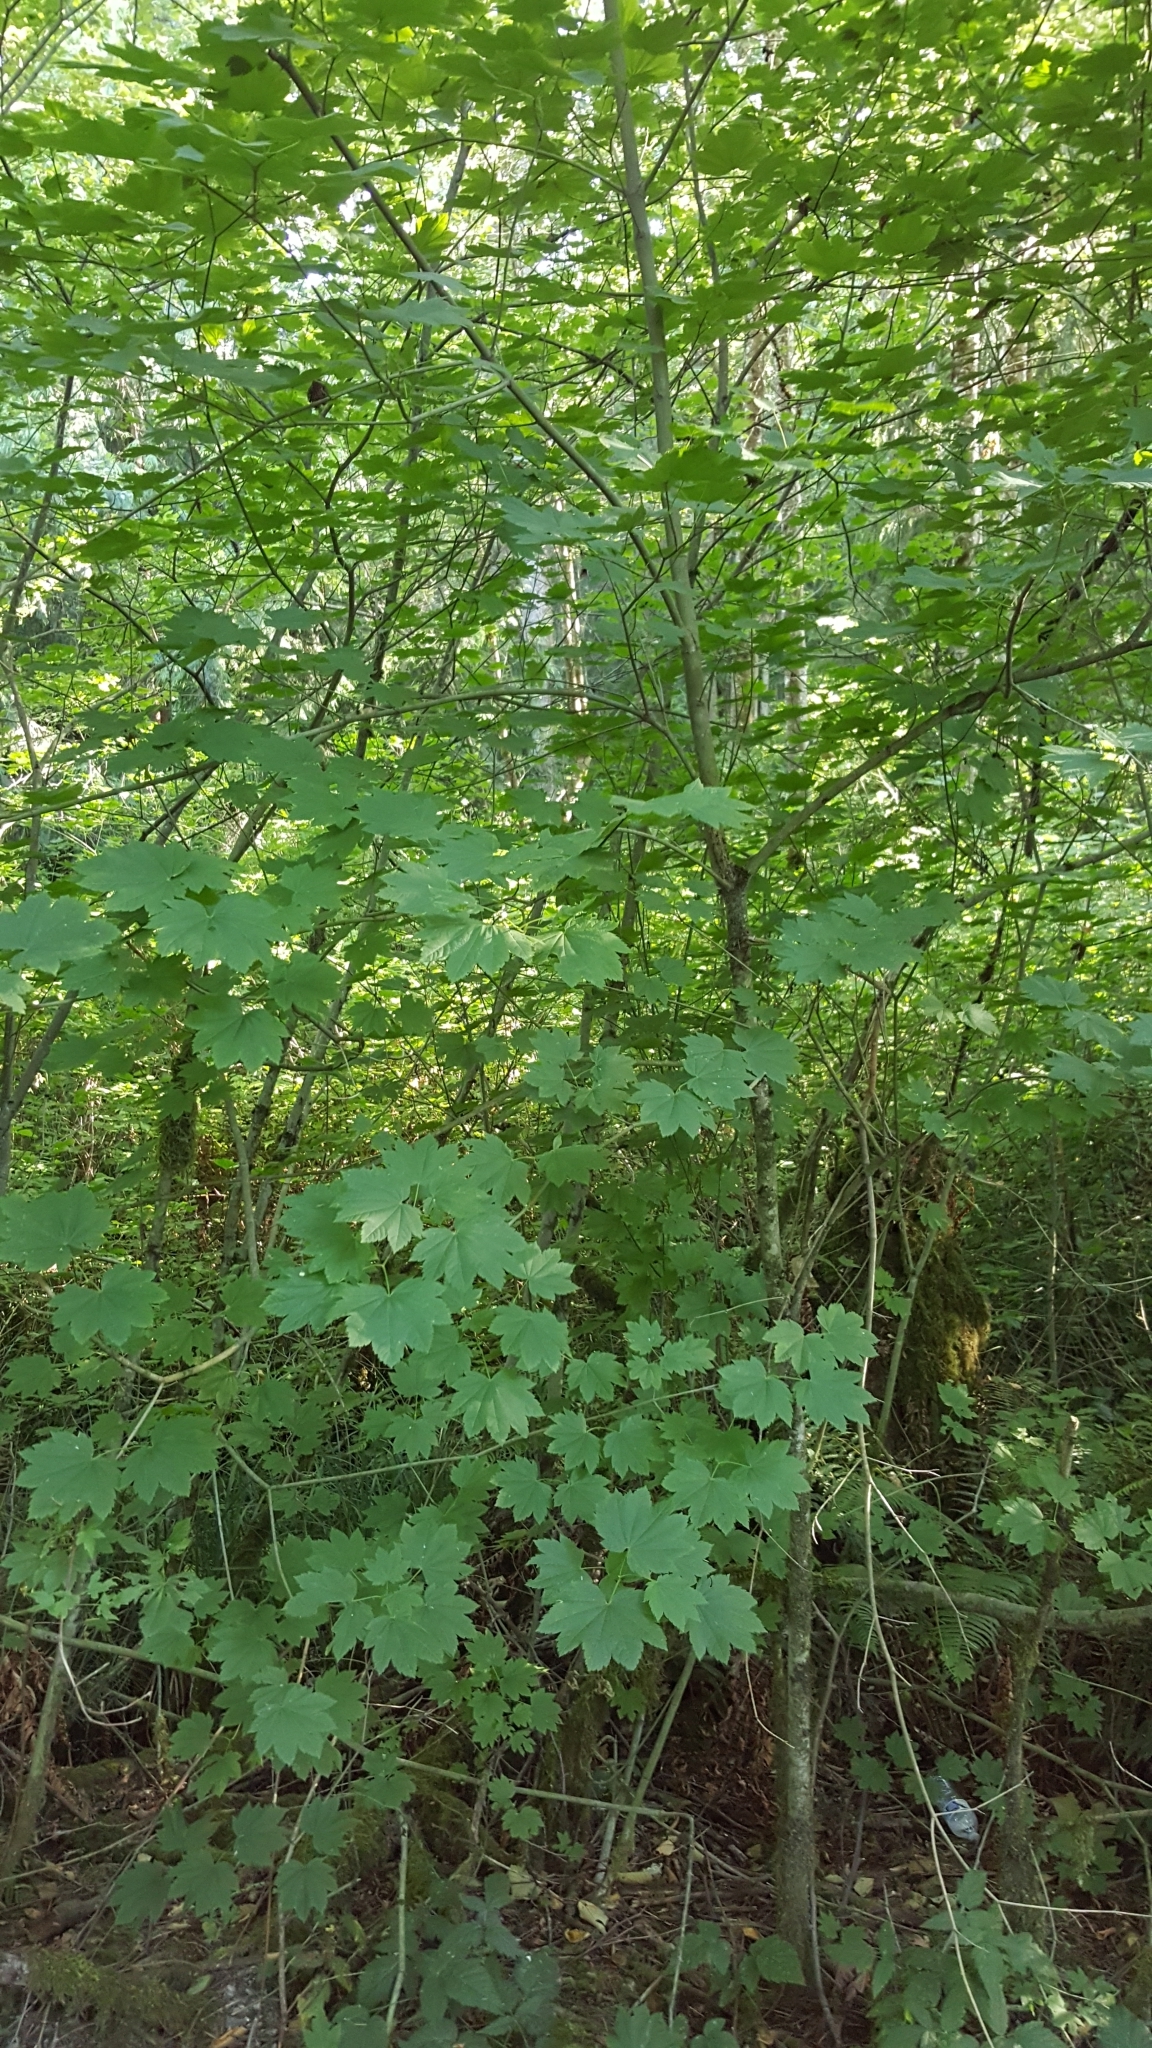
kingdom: Plantae
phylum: Tracheophyta
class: Magnoliopsida
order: Sapindales
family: Sapindaceae
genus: Acer
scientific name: Acer circinatum
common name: Vine maple
